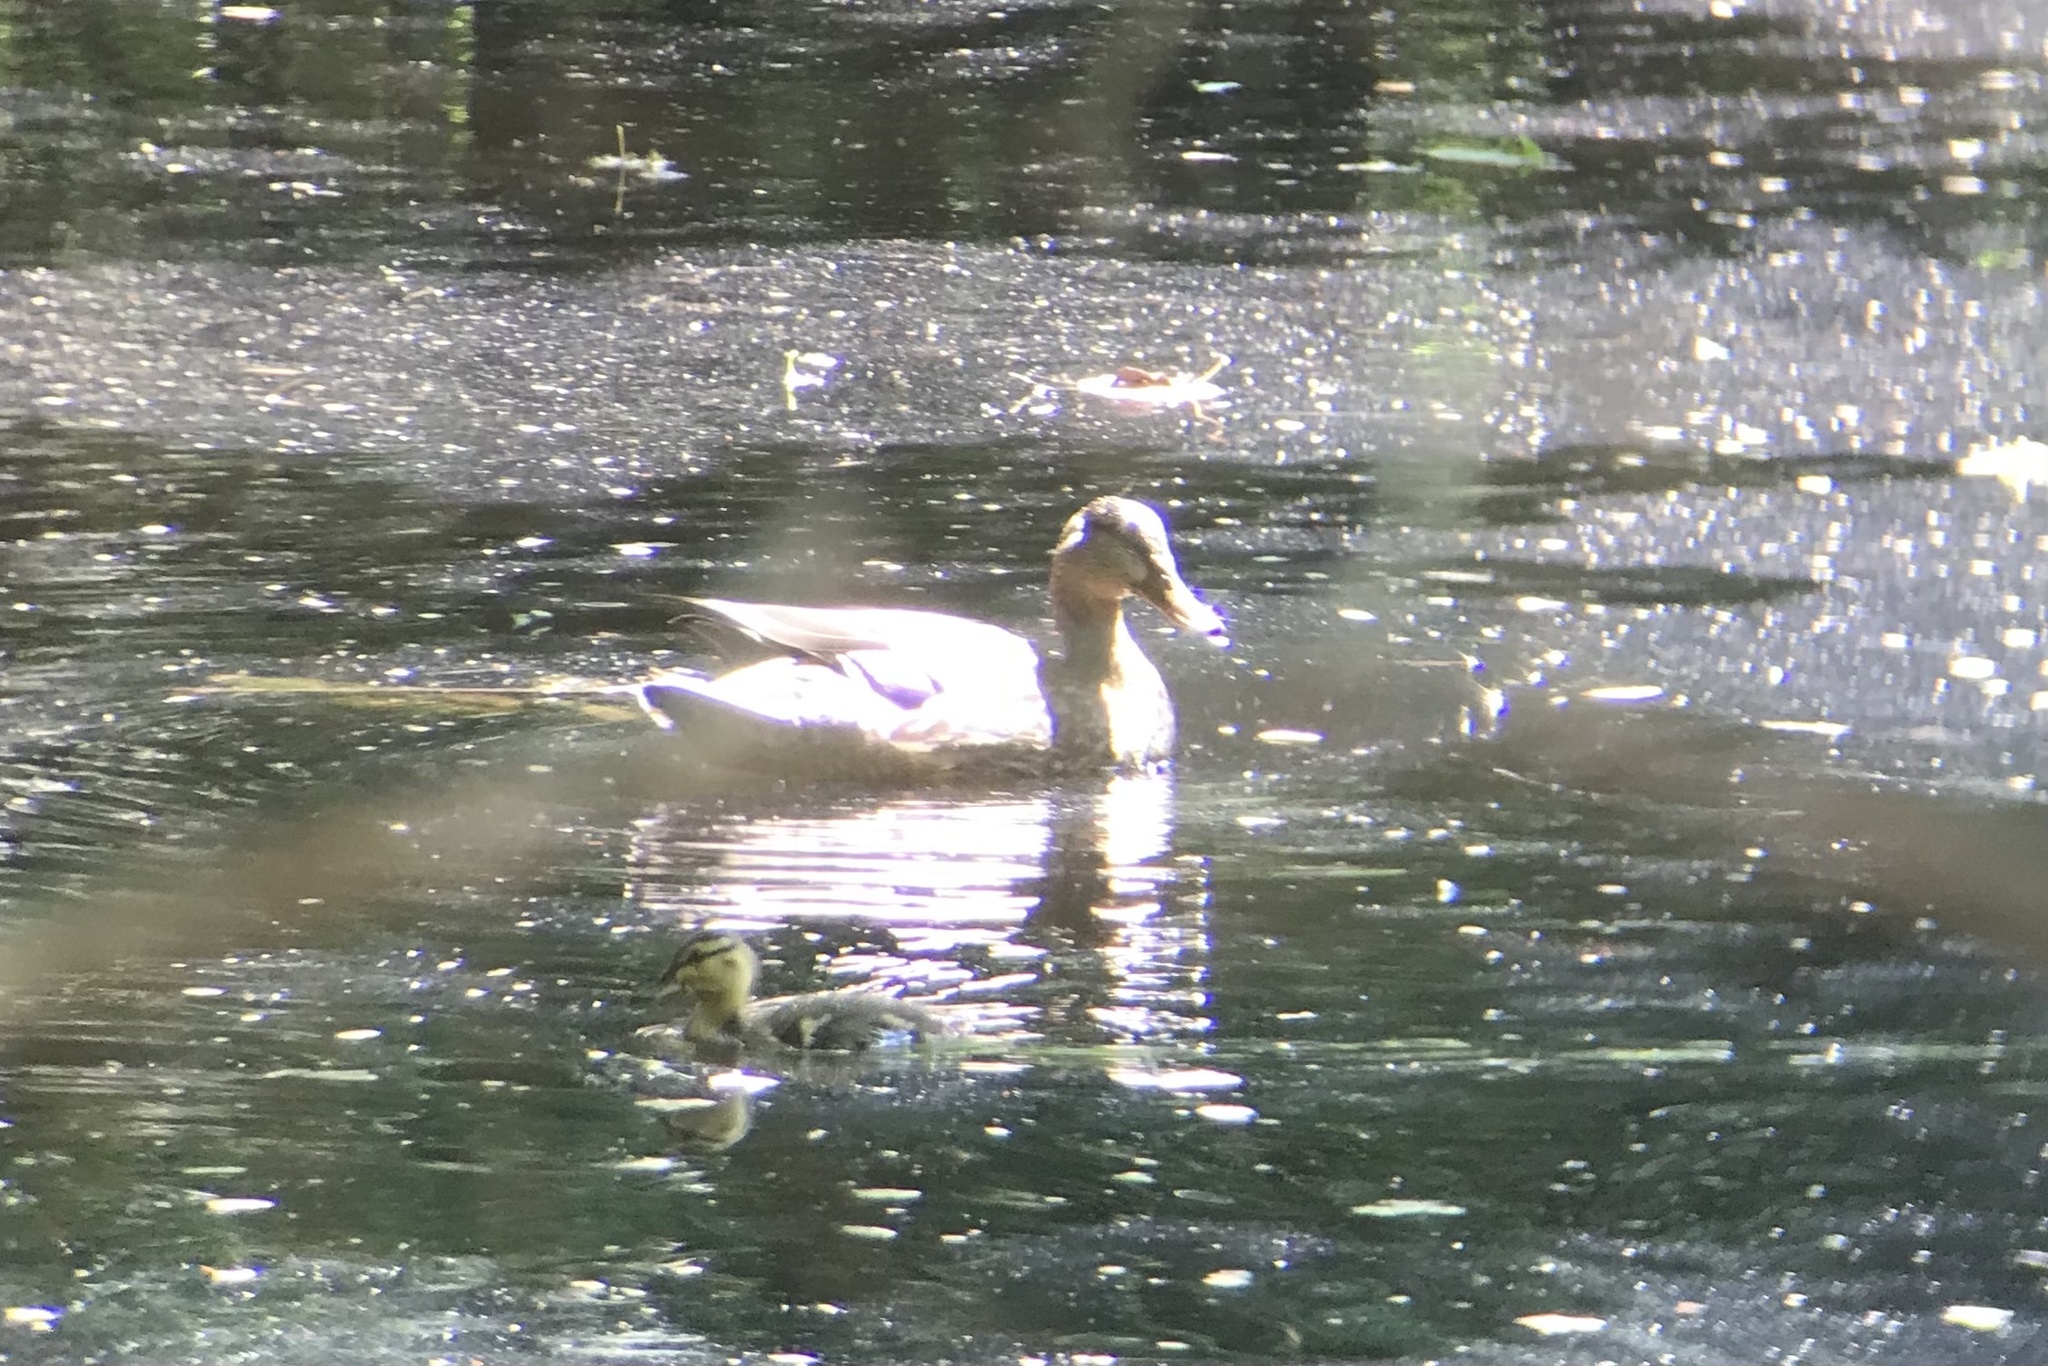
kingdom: Animalia
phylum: Chordata
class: Aves
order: Anseriformes
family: Anatidae
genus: Anas
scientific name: Anas platyrhynchos
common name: Mallard
